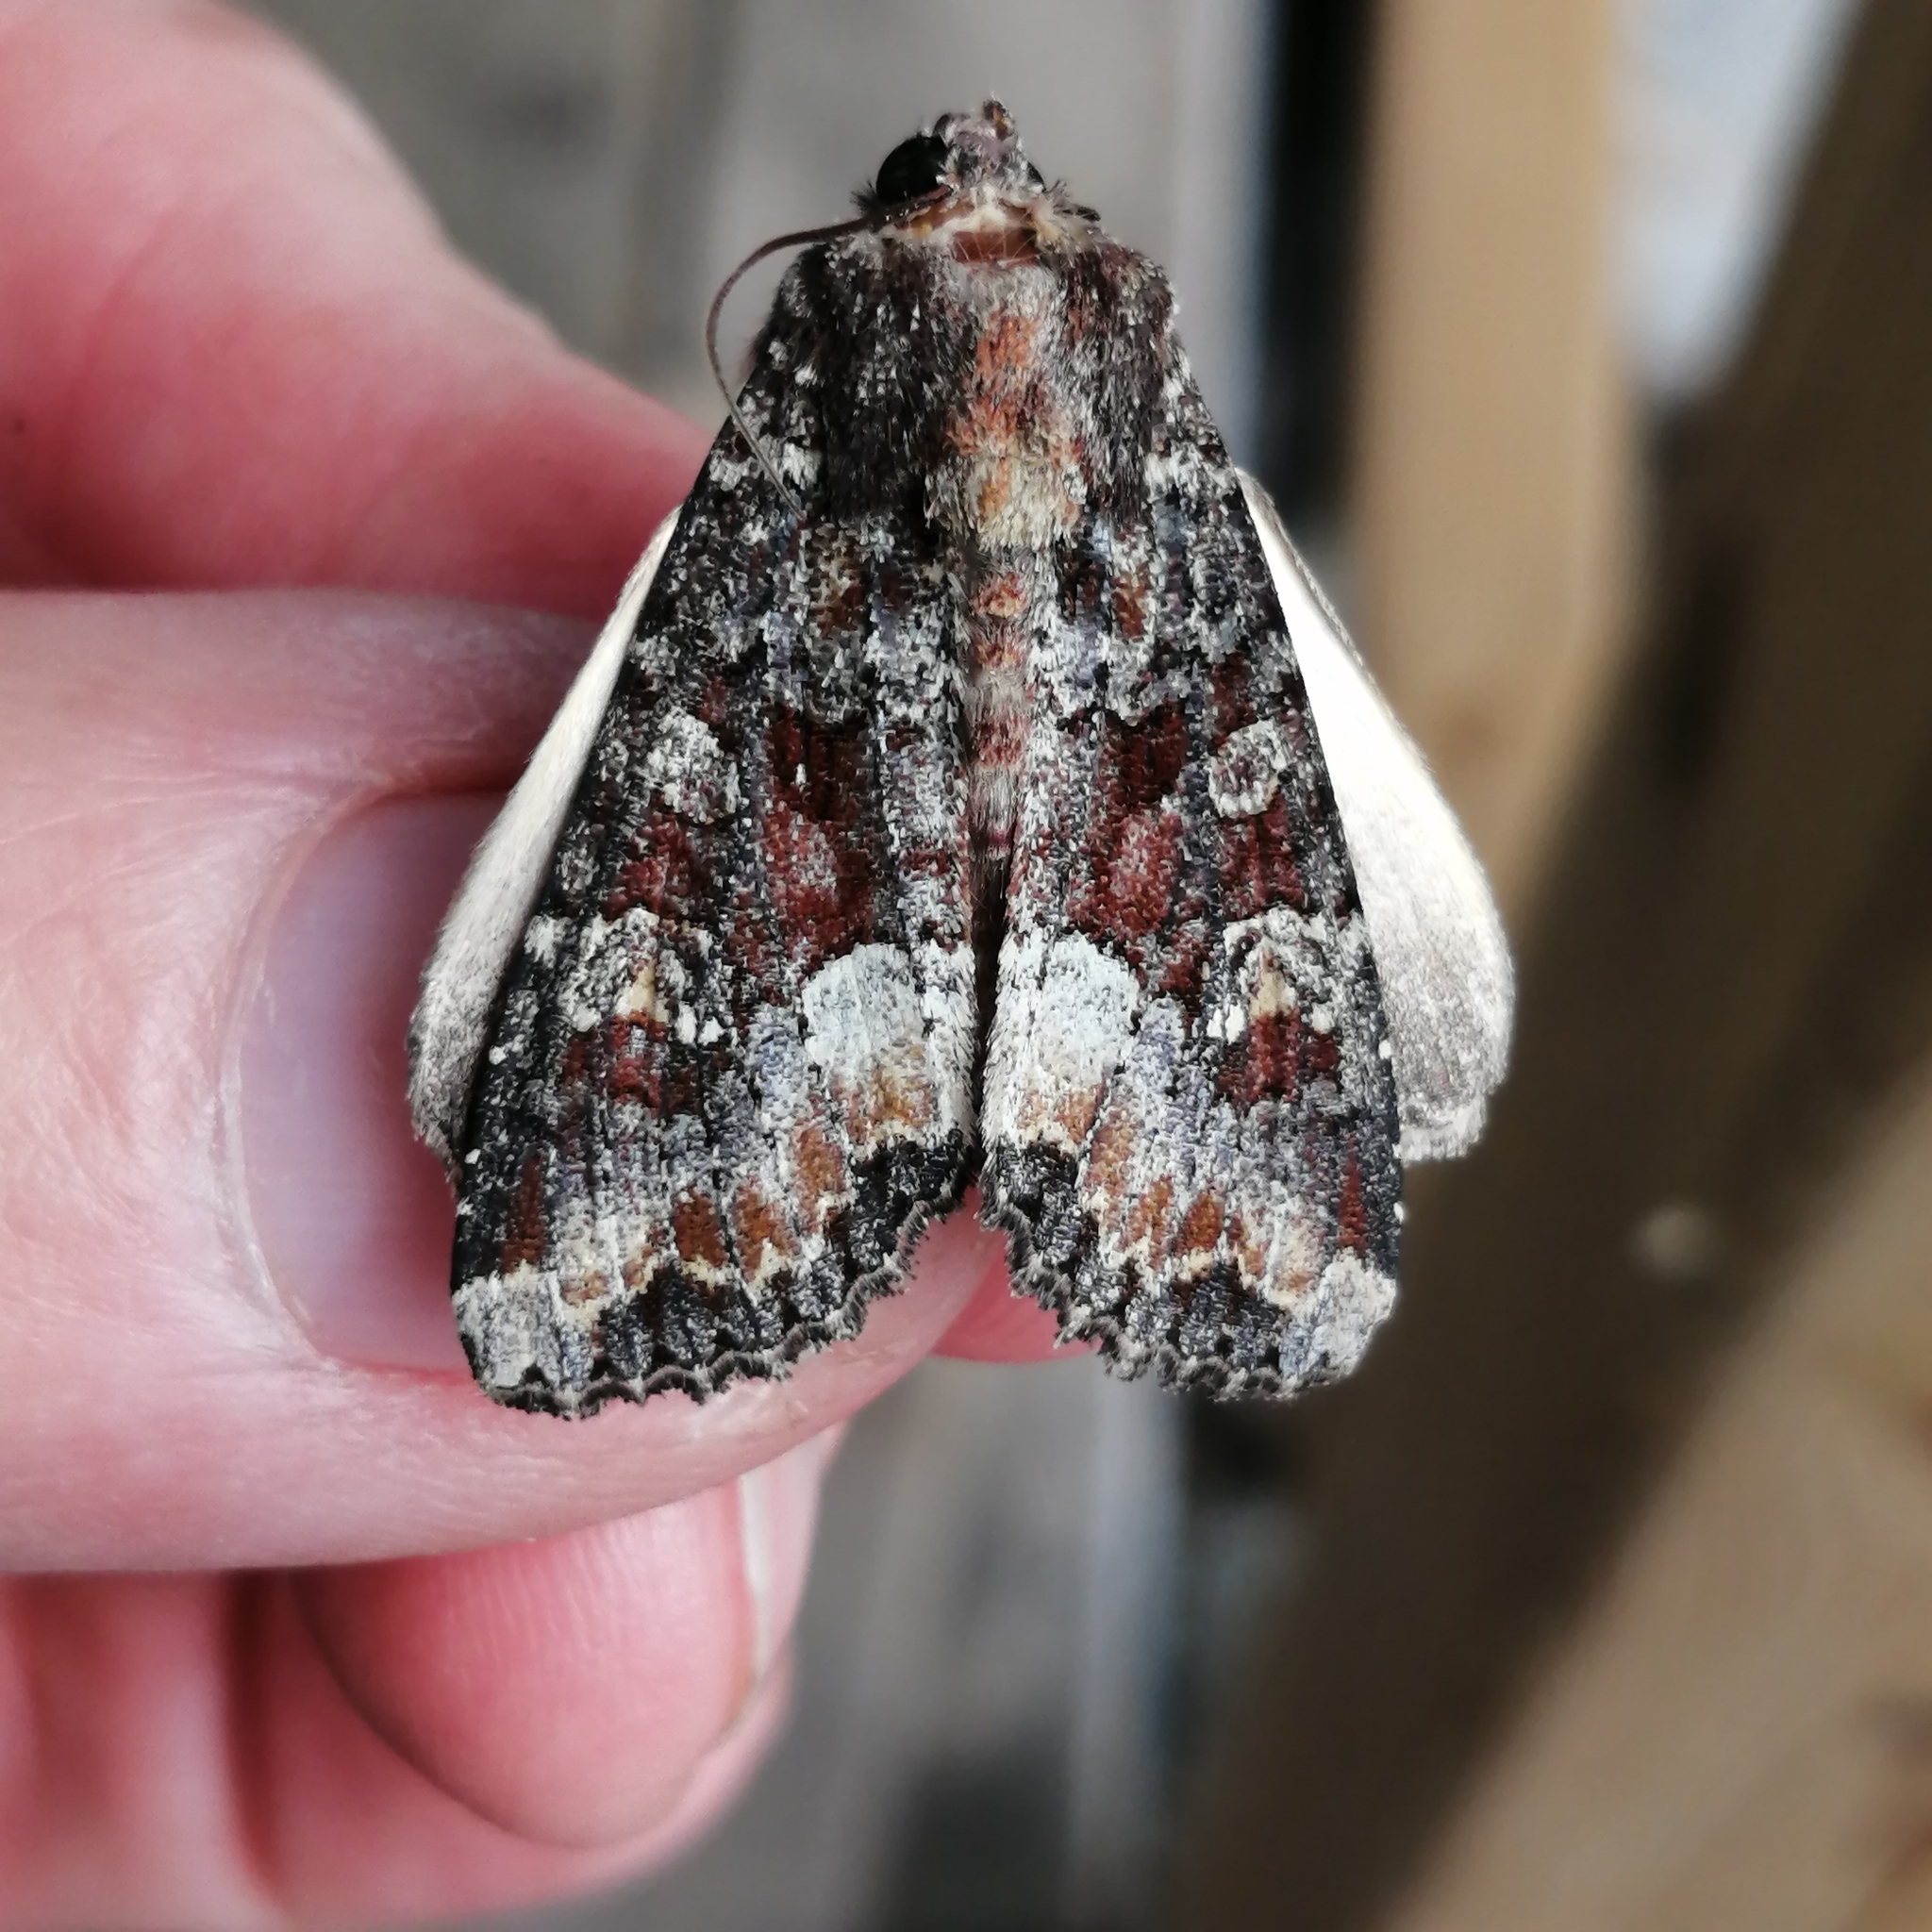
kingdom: Animalia
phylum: Arthropoda
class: Insecta
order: Lepidoptera
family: Noctuidae
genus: Apamea
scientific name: Apamea amputatrix
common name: Yellow-headed cutworm moth
